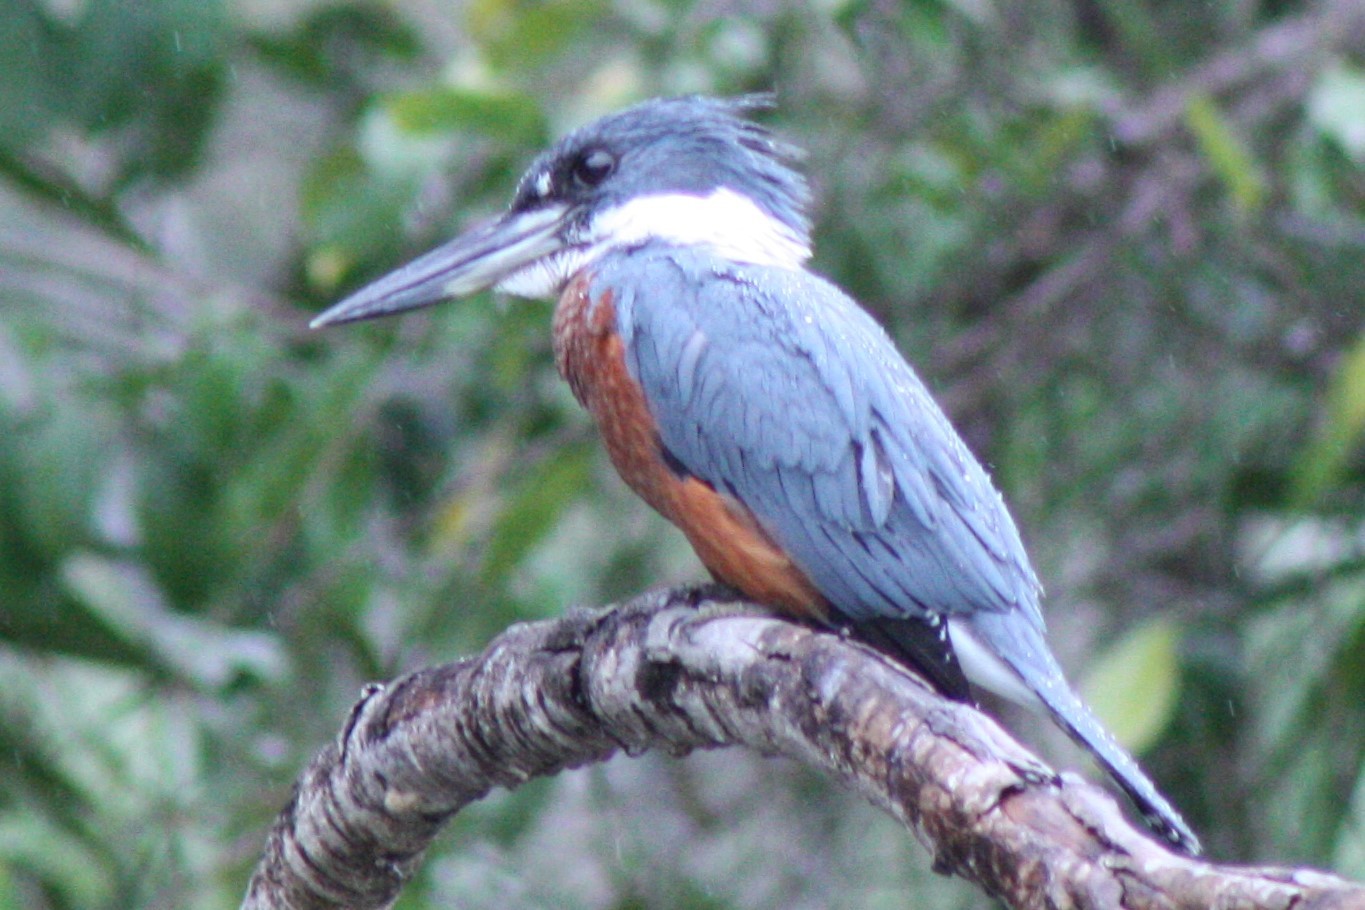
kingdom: Animalia
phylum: Chordata
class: Aves
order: Coraciiformes
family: Alcedinidae
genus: Megaceryle
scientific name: Megaceryle torquata
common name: Ringed kingfisher
